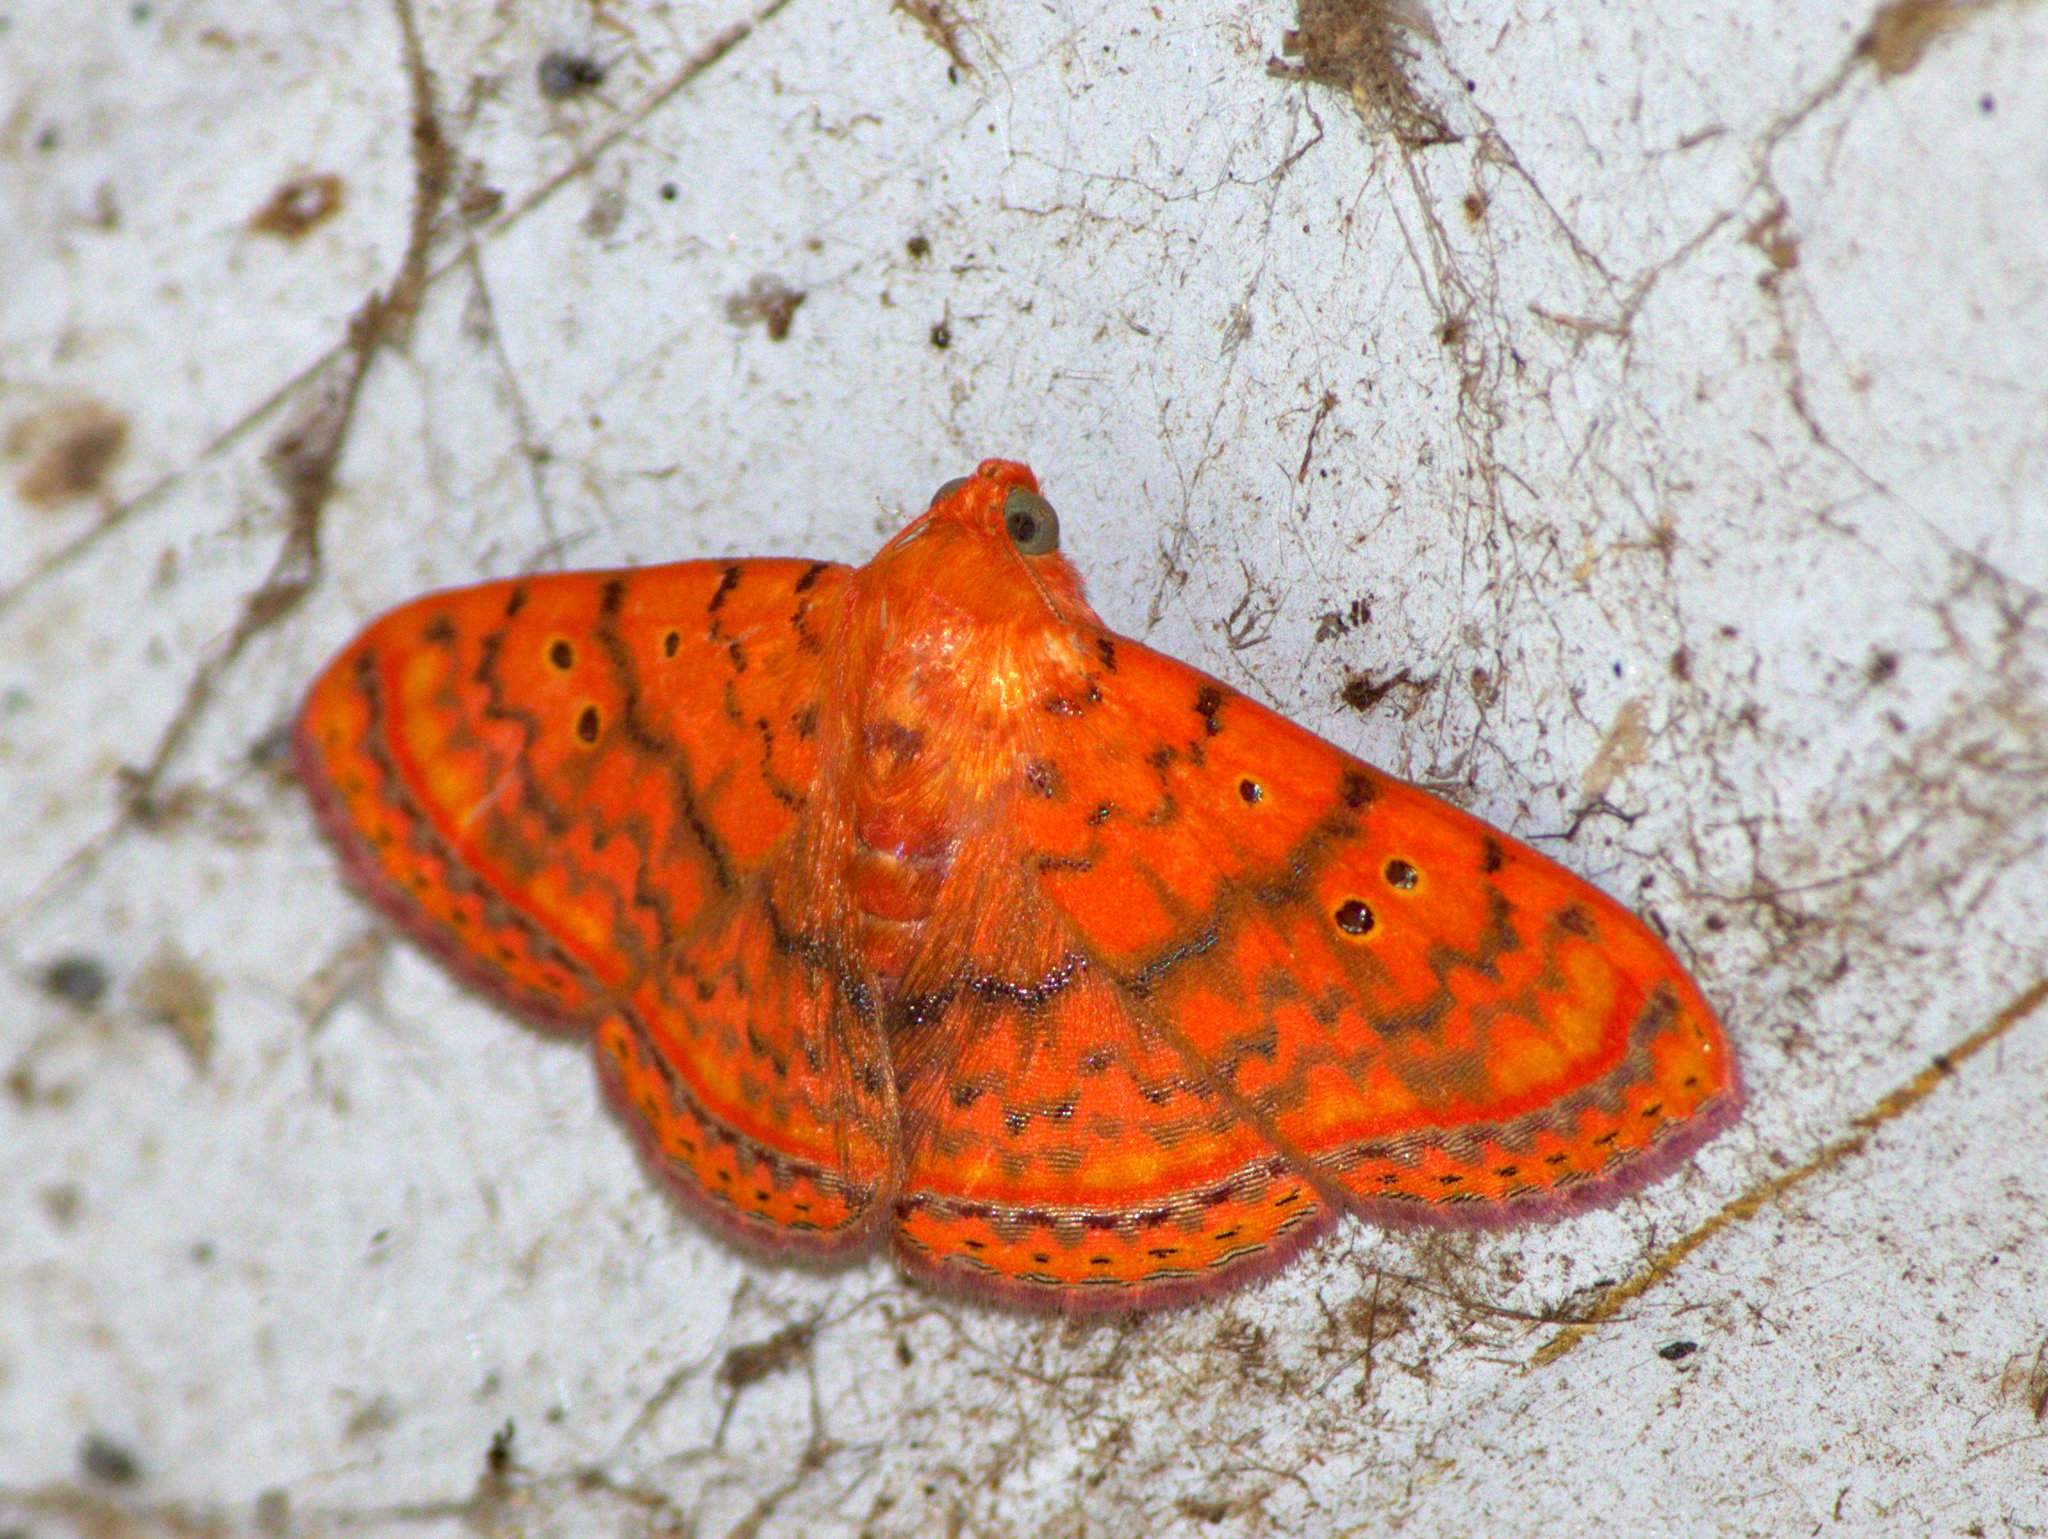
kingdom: Animalia
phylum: Arthropoda
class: Insecta
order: Lepidoptera
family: Erebidae
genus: Homodes
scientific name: Homodes crocea
